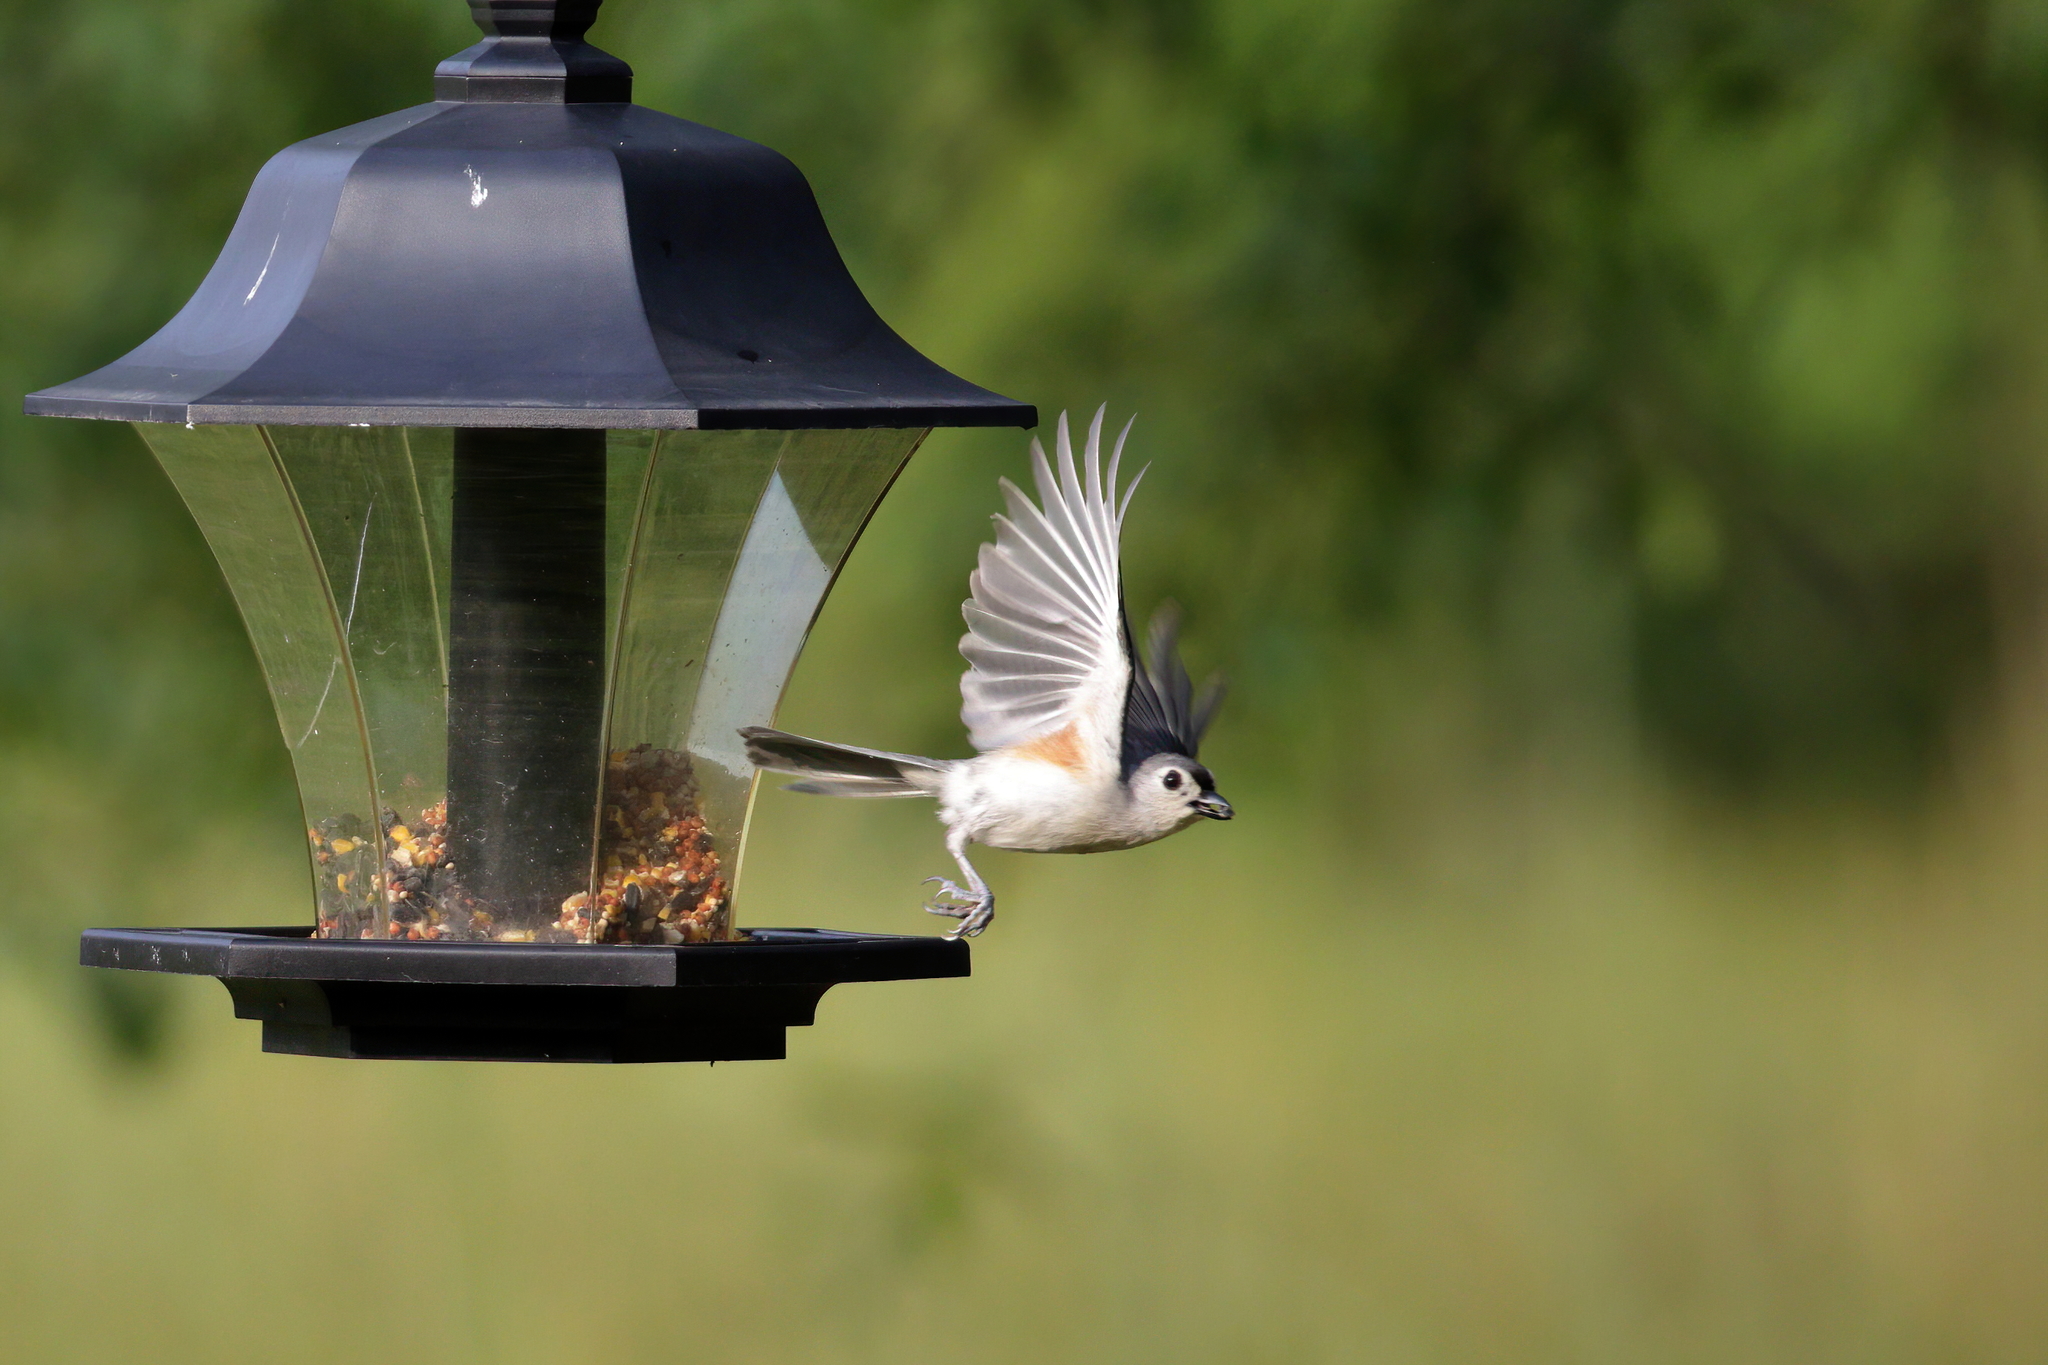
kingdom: Animalia
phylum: Chordata
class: Aves
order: Passeriformes
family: Paridae
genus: Baeolophus
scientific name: Baeolophus bicolor
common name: Tufted titmouse
